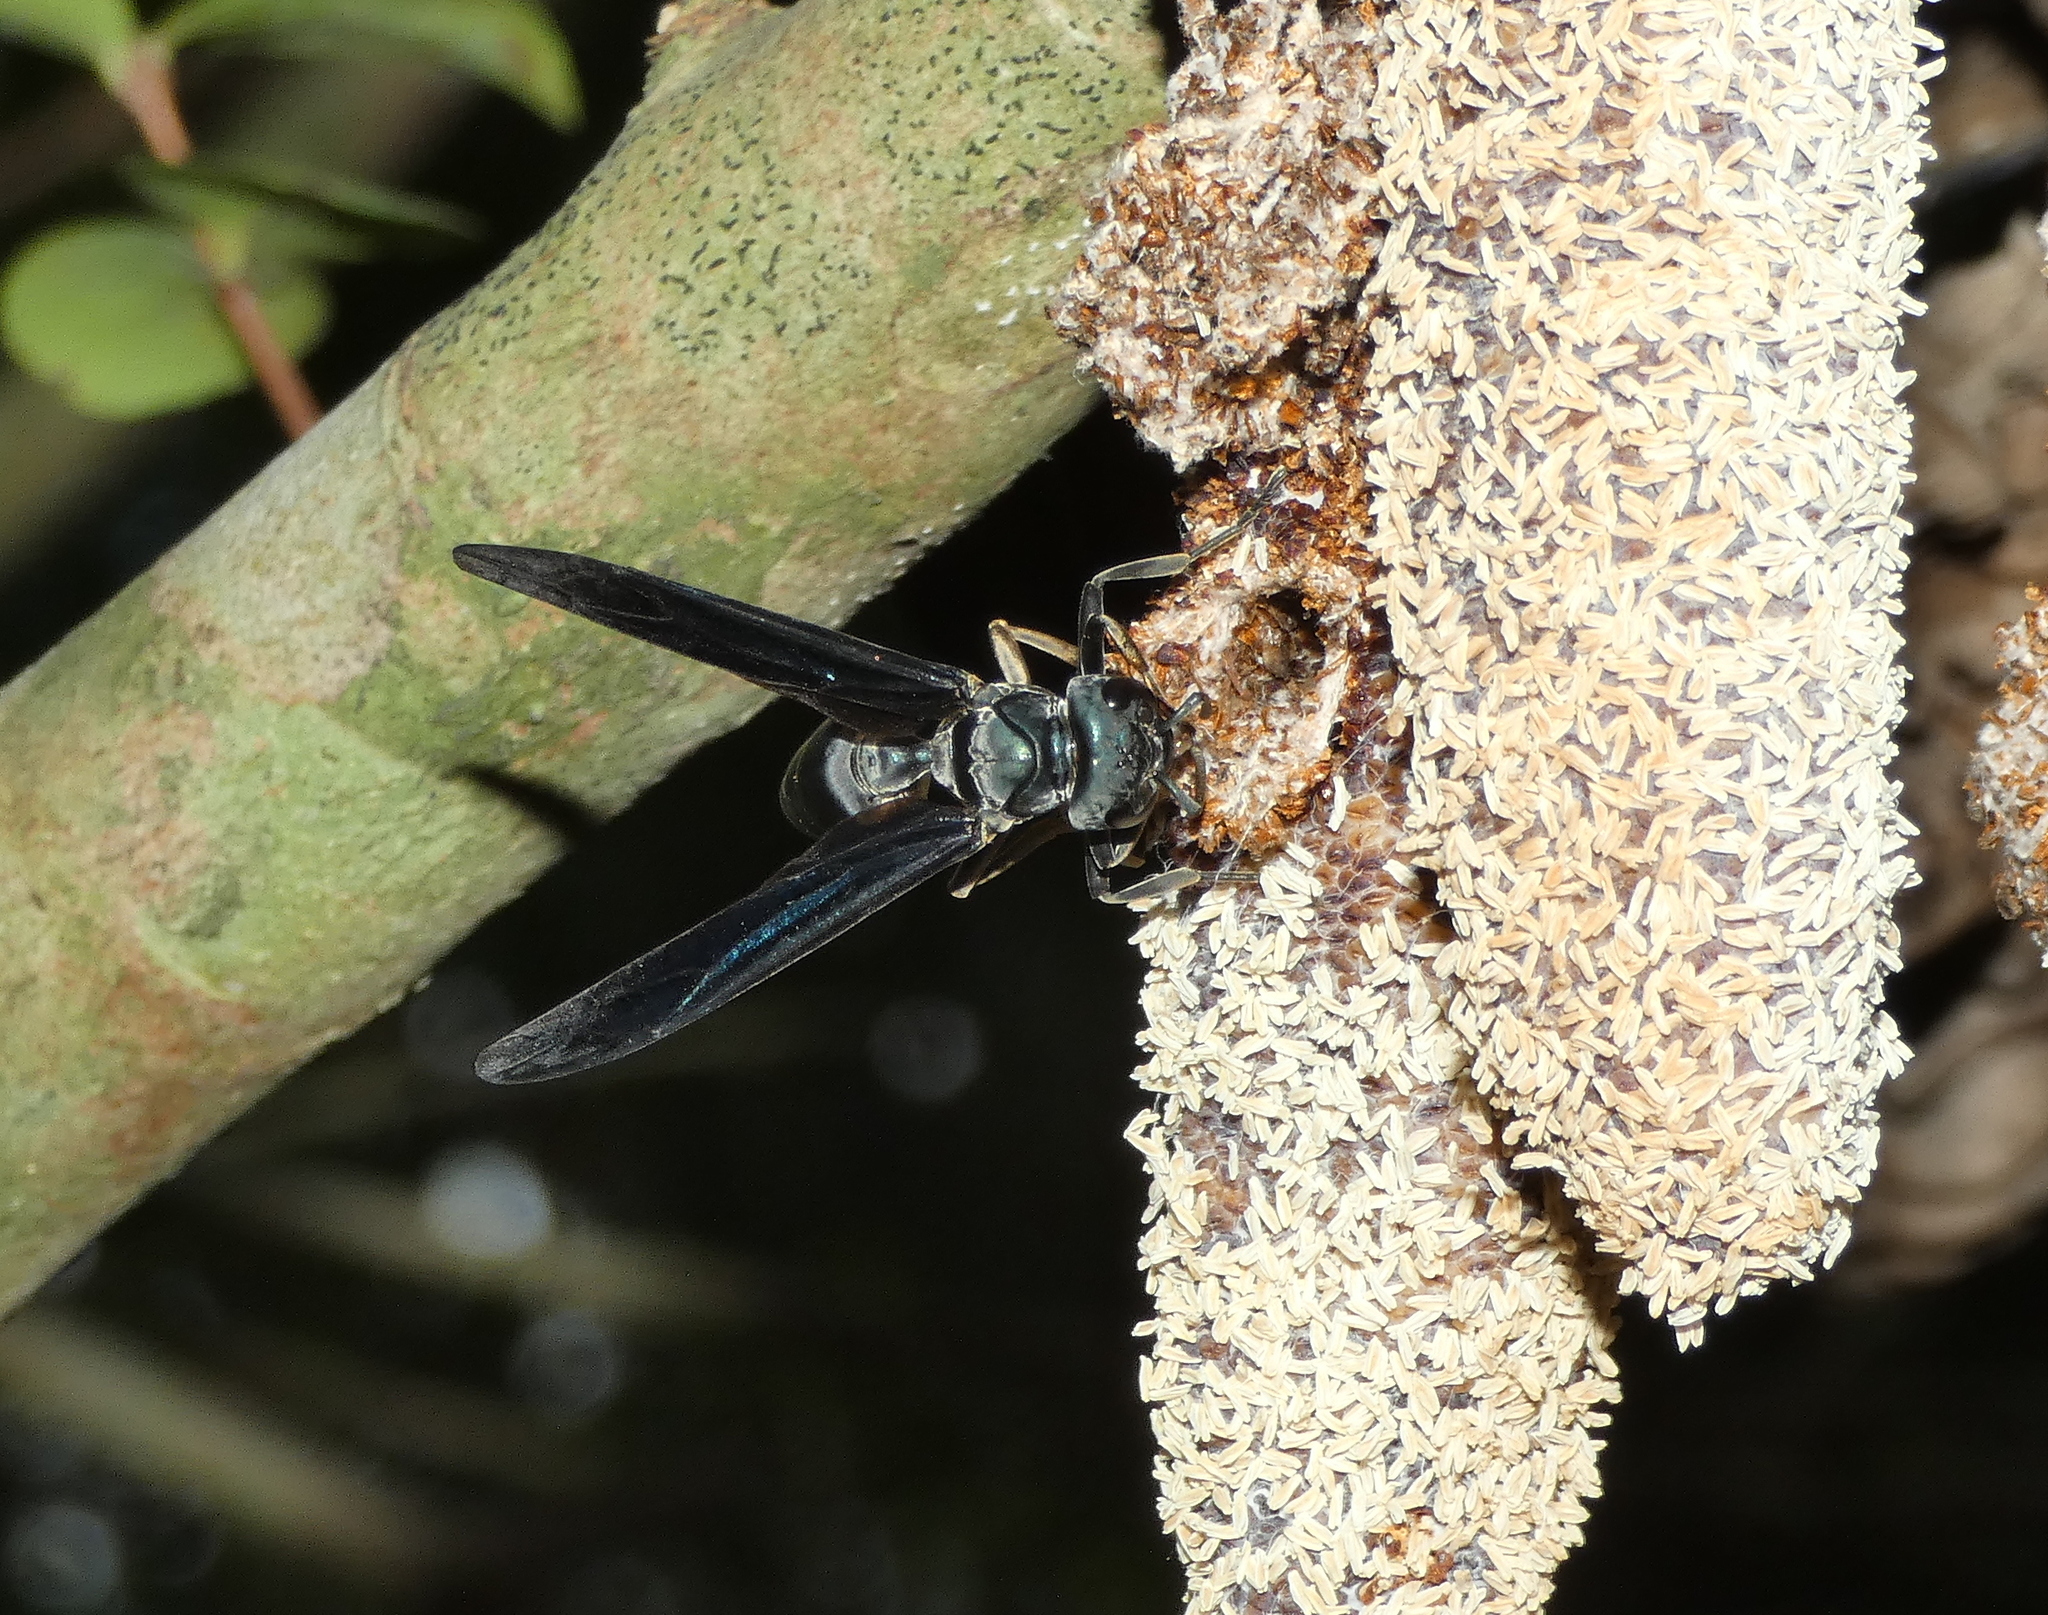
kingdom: Animalia
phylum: Arthropoda
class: Insecta
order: Hymenoptera
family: Vespidae
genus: Synoeca
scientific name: Synoeca ilheensis
